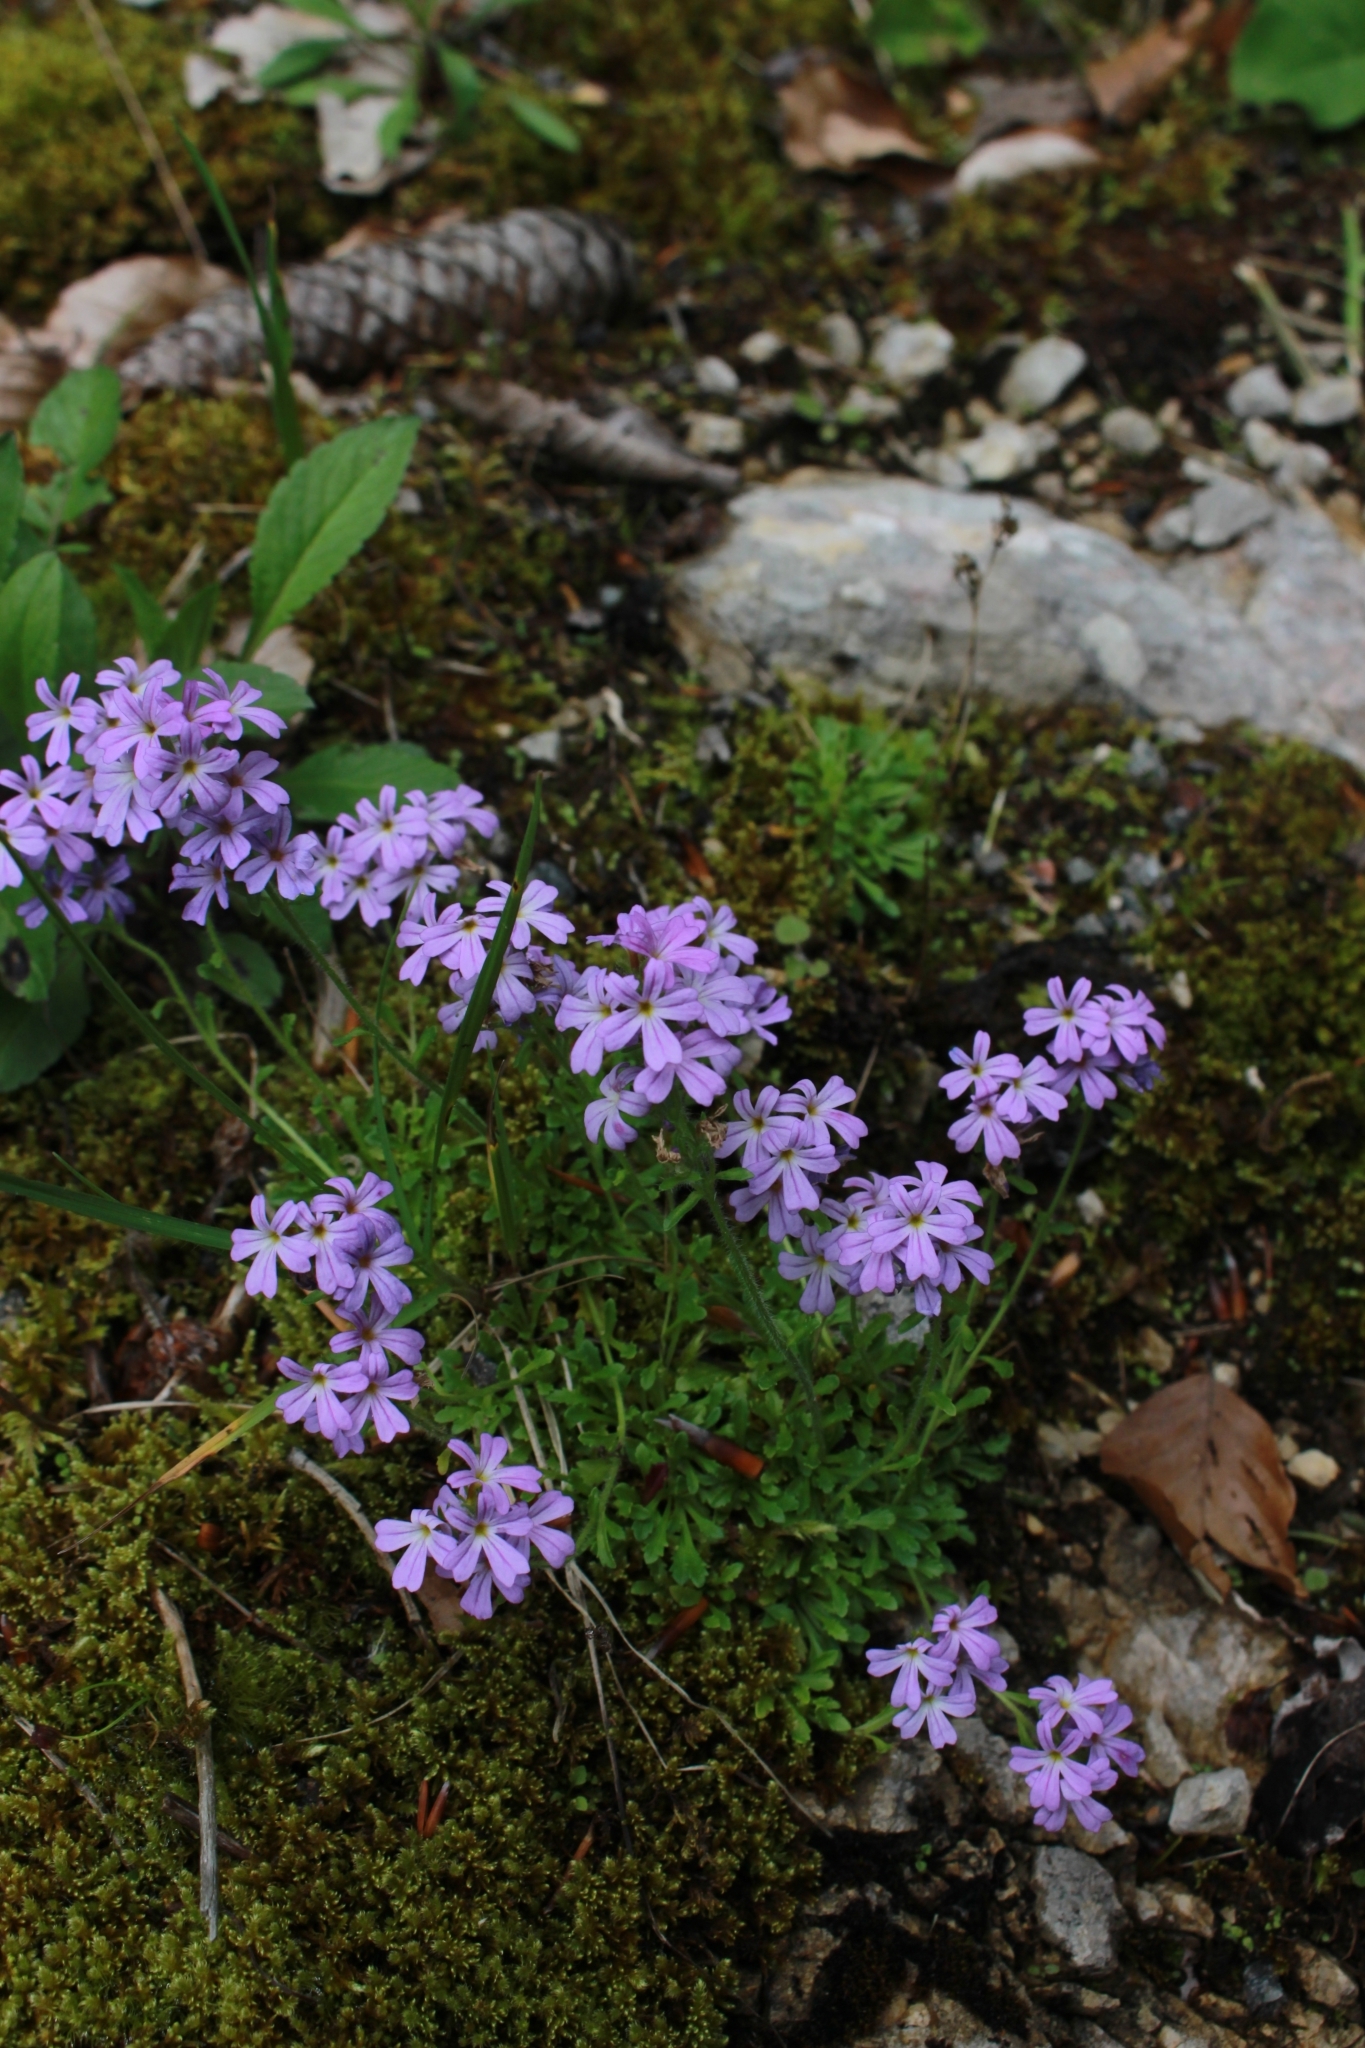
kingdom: Plantae
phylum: Tracheophyta
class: Magnoliopsida
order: Lamiales
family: Plantaginaceae
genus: Erinus
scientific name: Erinus alpinus
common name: Fairy foxglove
